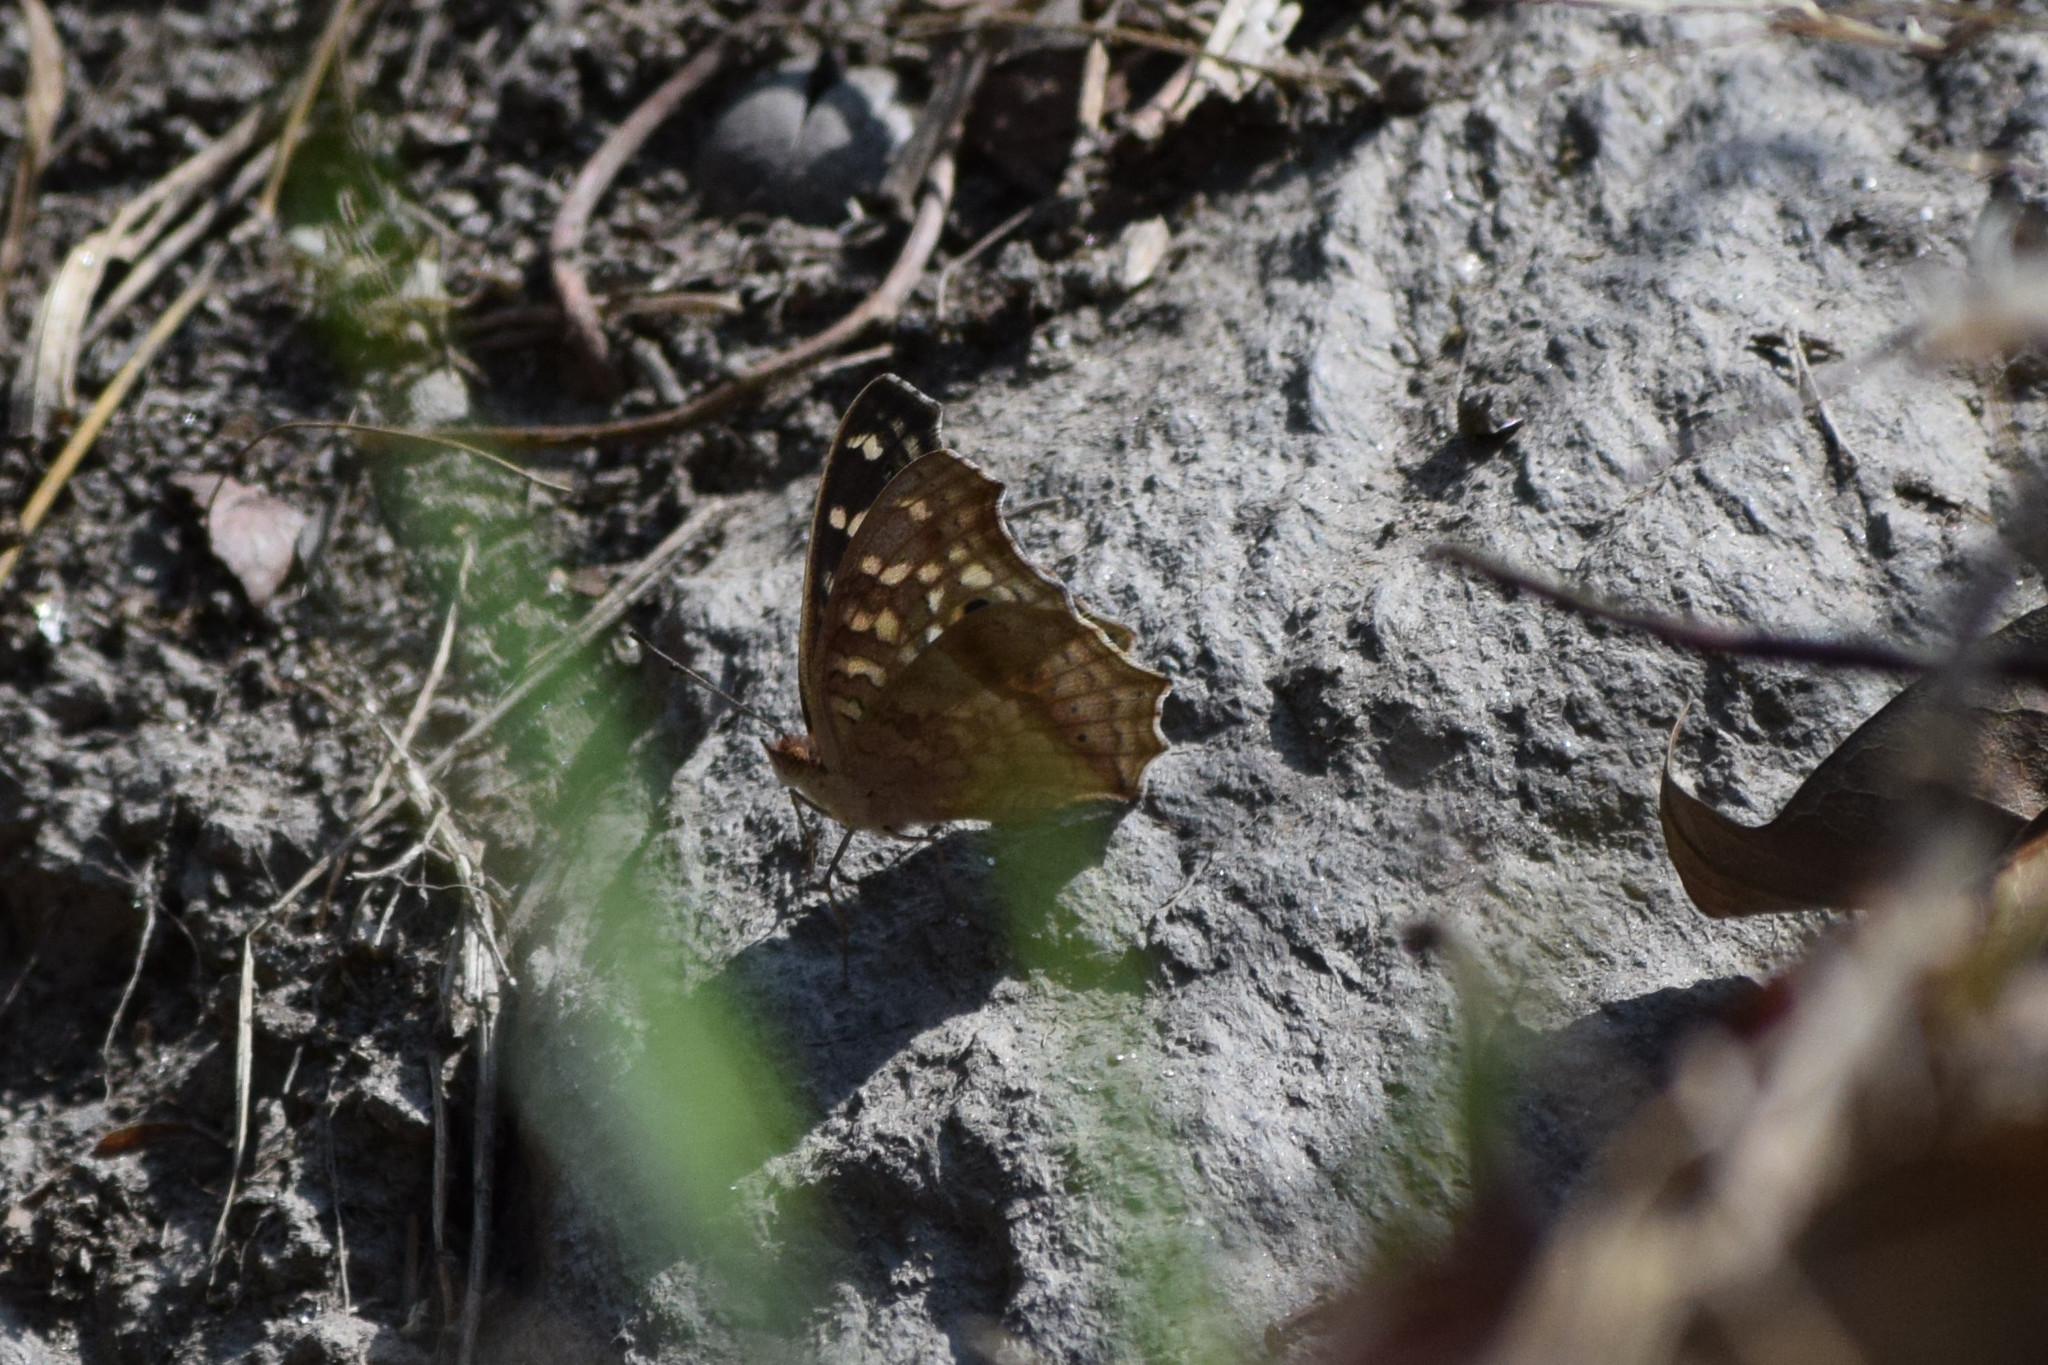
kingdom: Animalia
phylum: Arthropoda
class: Insecta
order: Lepidoptera
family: Nymphalidae
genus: Junonia
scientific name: Junonia lemonias
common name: Lemon pansy
